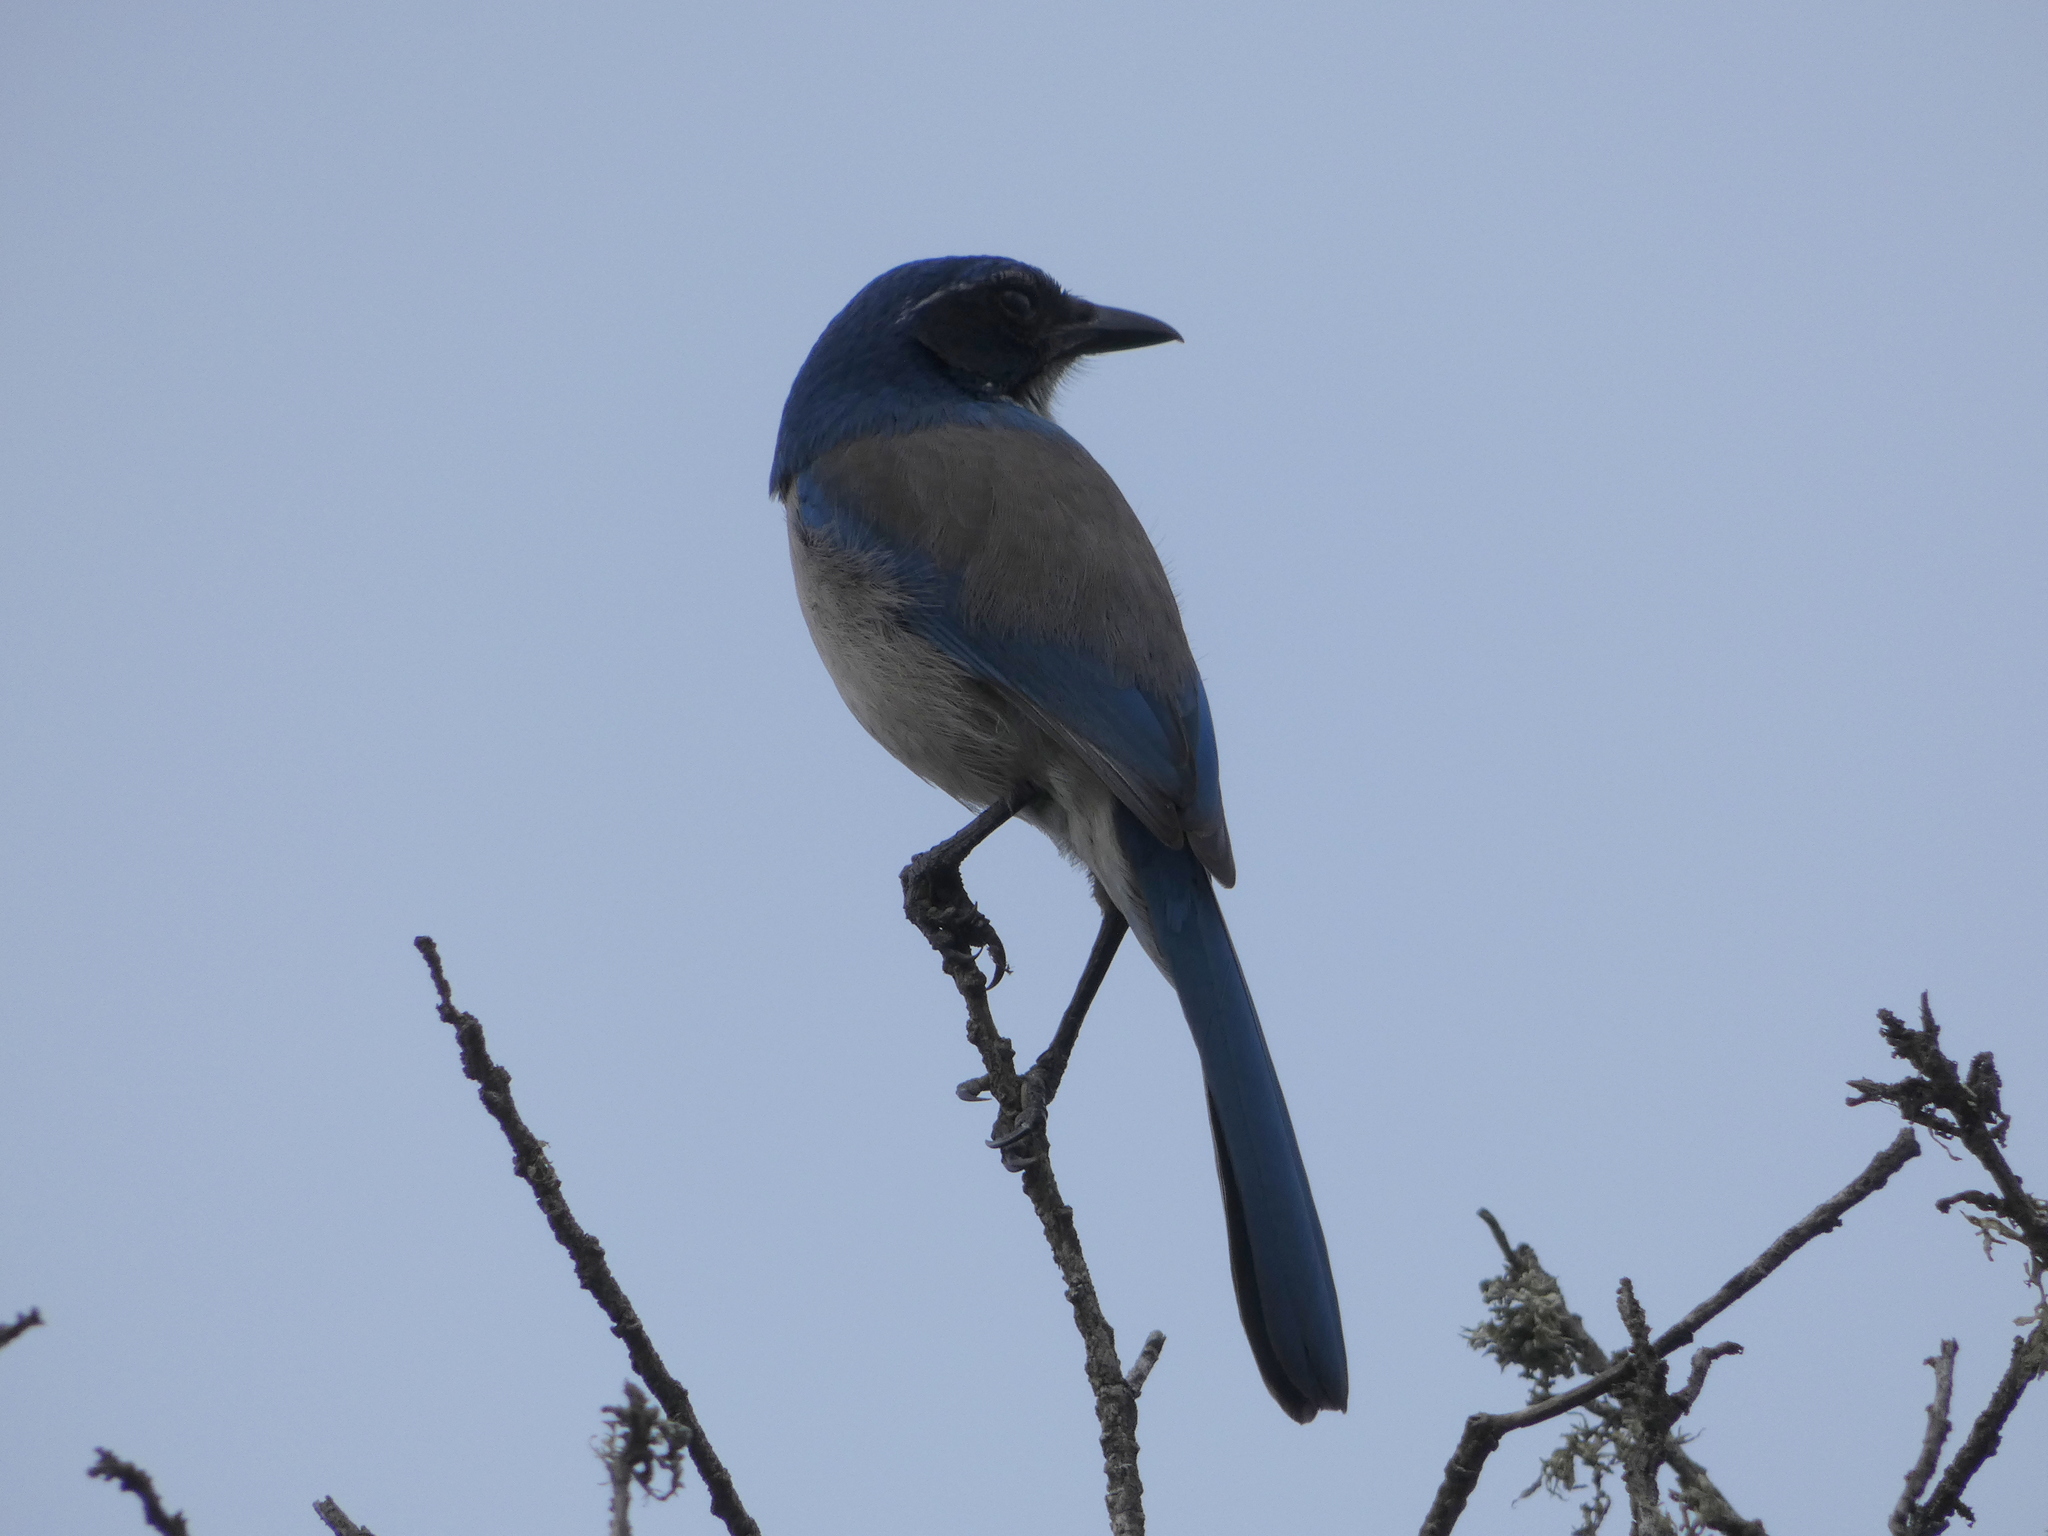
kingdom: Animalia
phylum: Chordata
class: Aves
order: Passeriformes
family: Corvidae
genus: Aphelocoma
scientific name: Aphelocoma californica
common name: California scrub-jay
